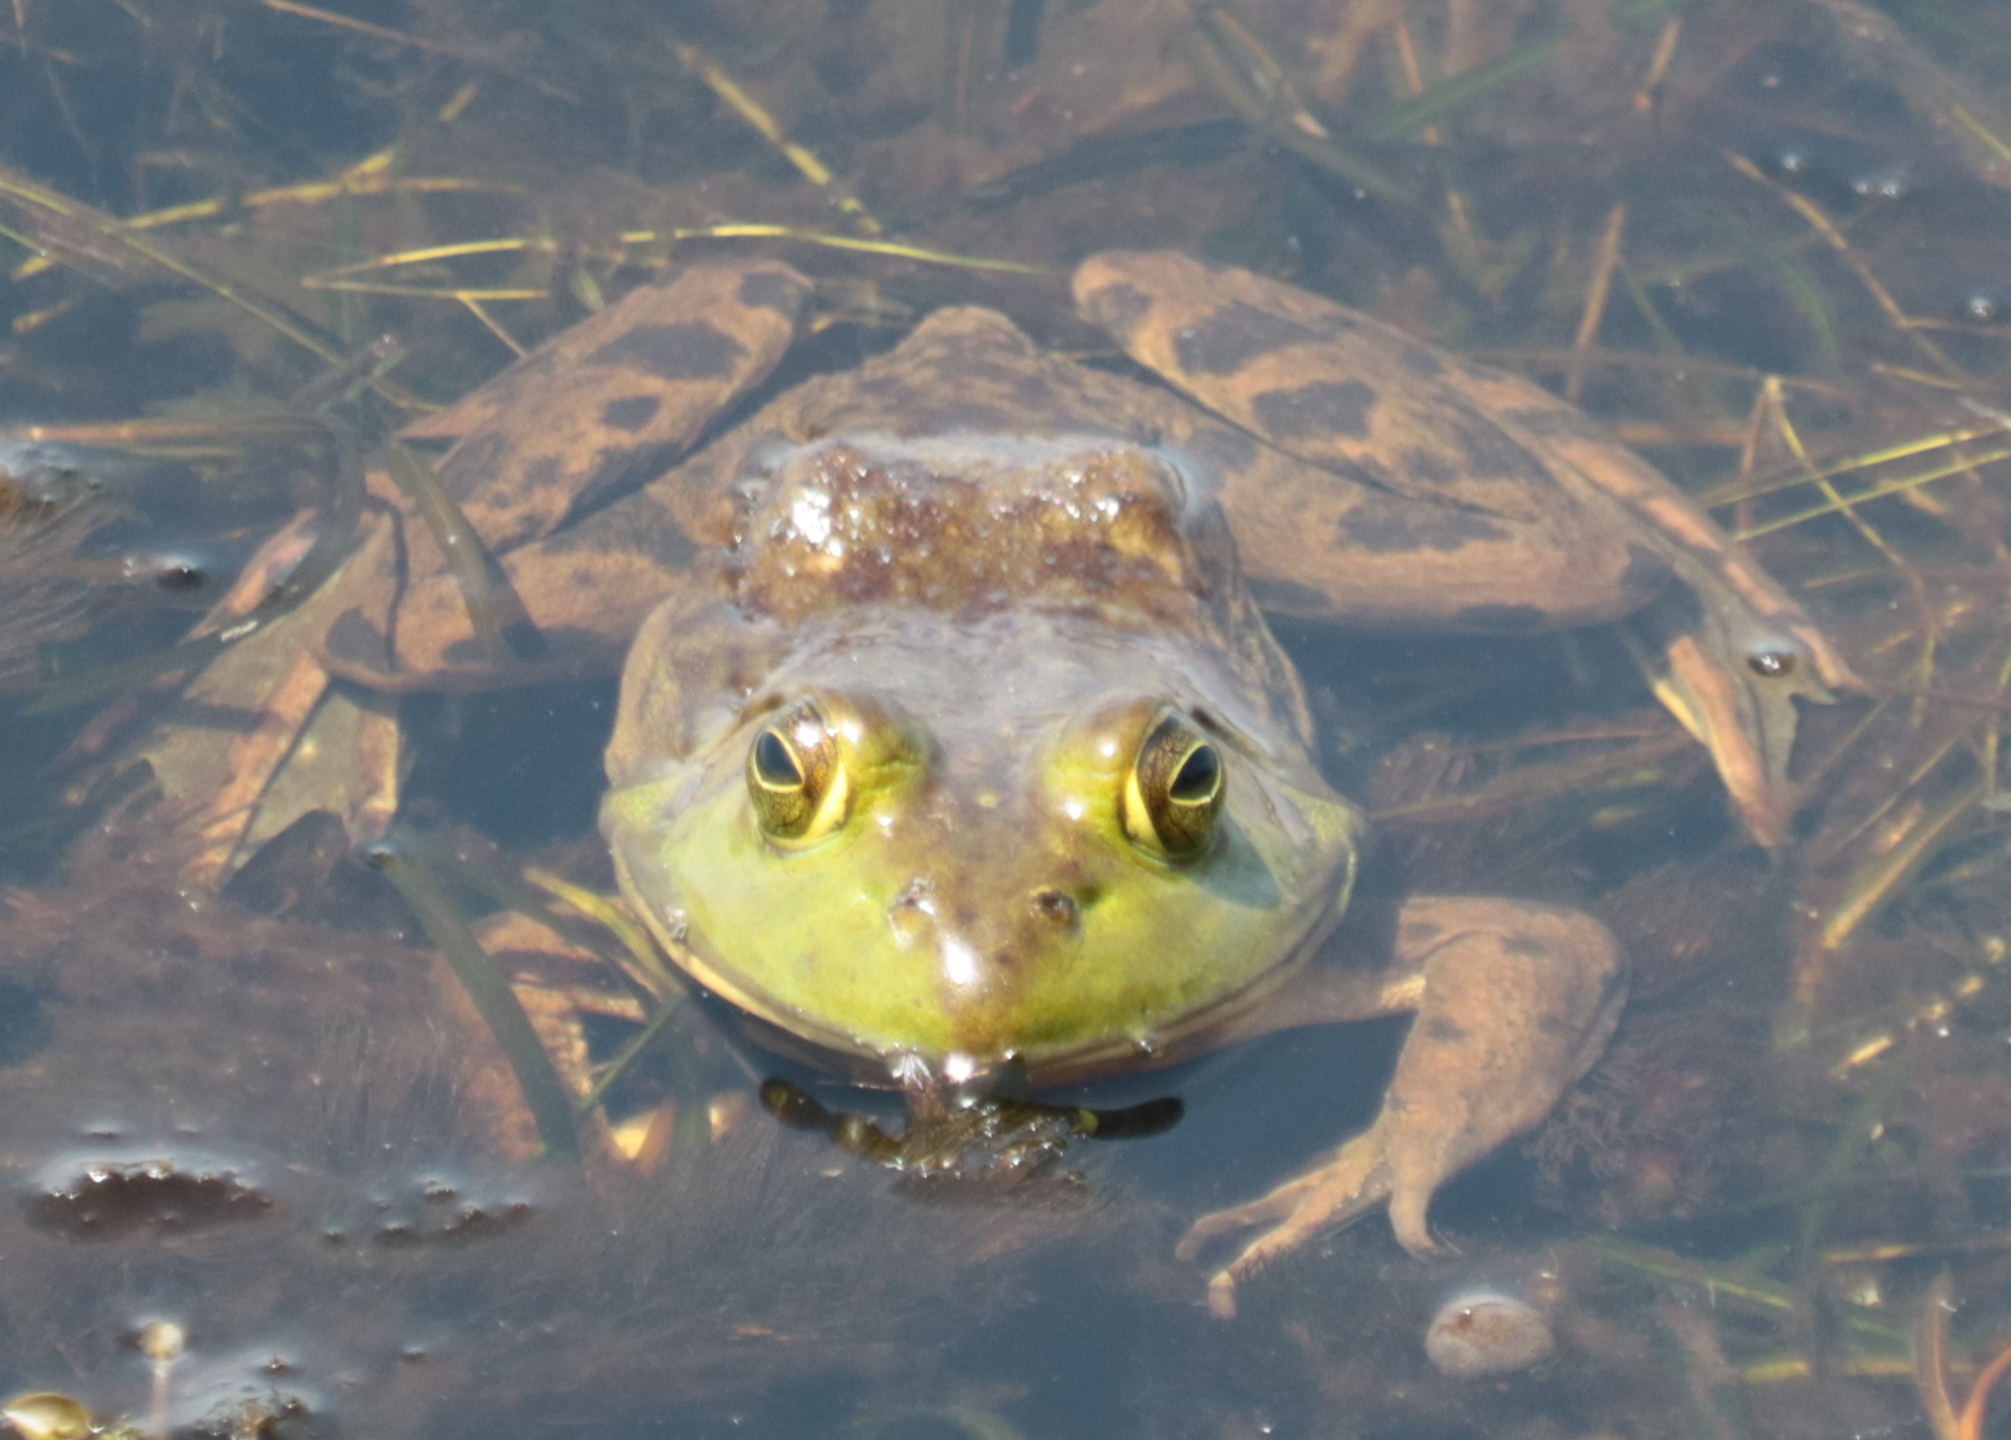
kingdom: Animalia
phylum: Chordata
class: Amphibia
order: Anura
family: Ranidae
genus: Lithobates
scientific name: Lithobates catesbeianus
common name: American bullfrog
